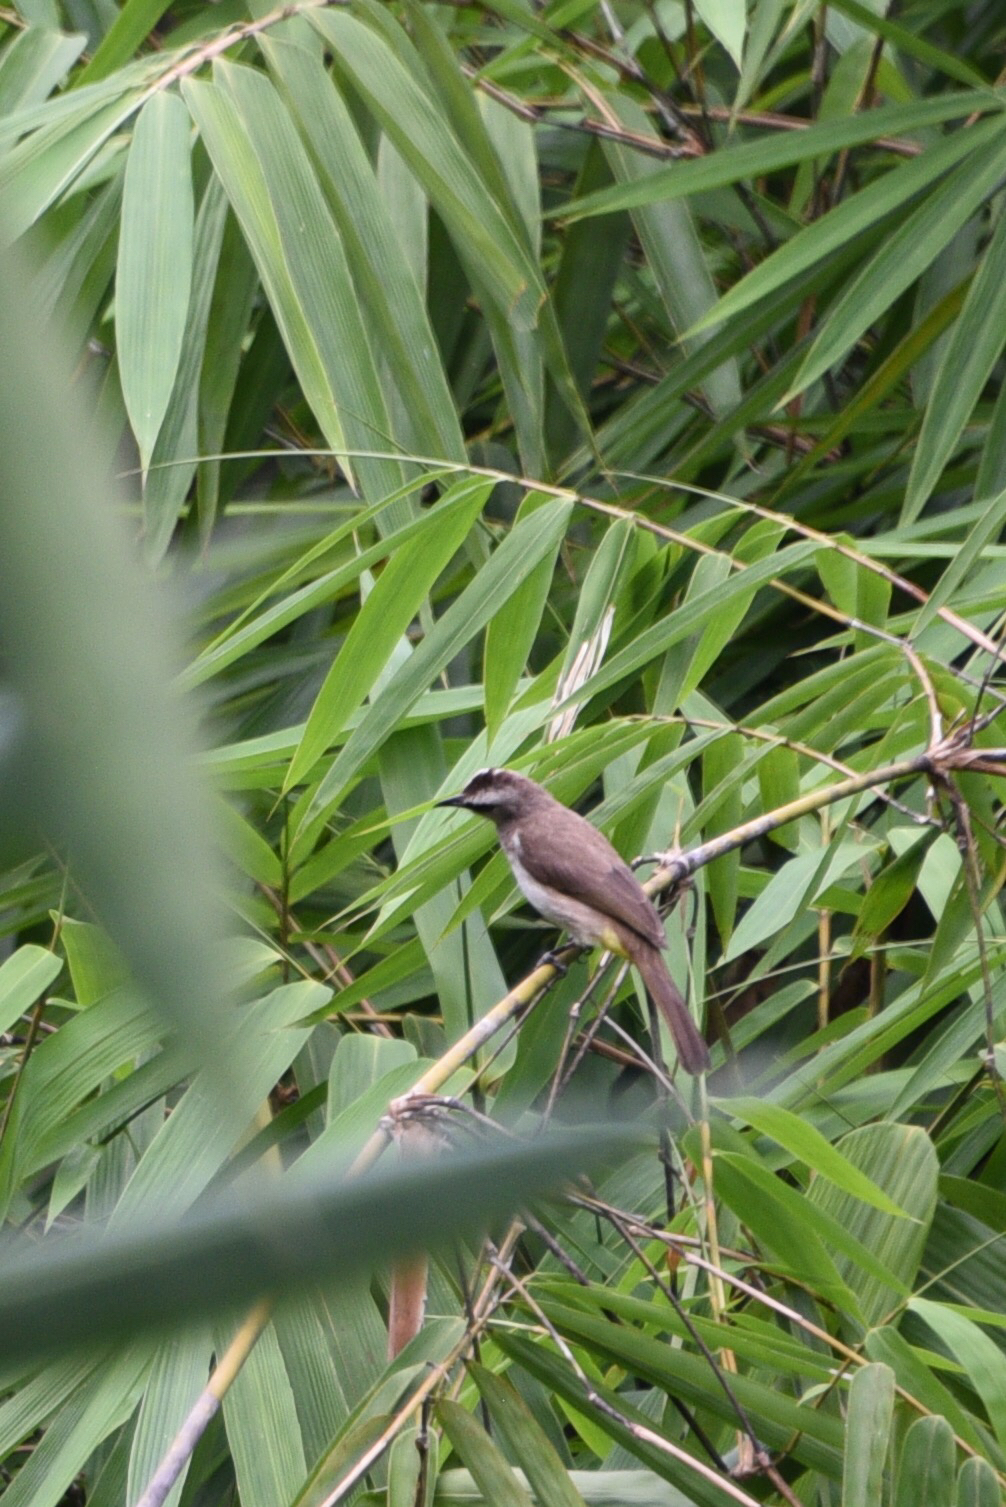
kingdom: Animalia
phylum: Chordata
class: Aves
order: Passeriformes
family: Pycnonotidae
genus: Pycnonotus
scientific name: Pycnonotus goiavier
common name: Yellow-vented bulbul
